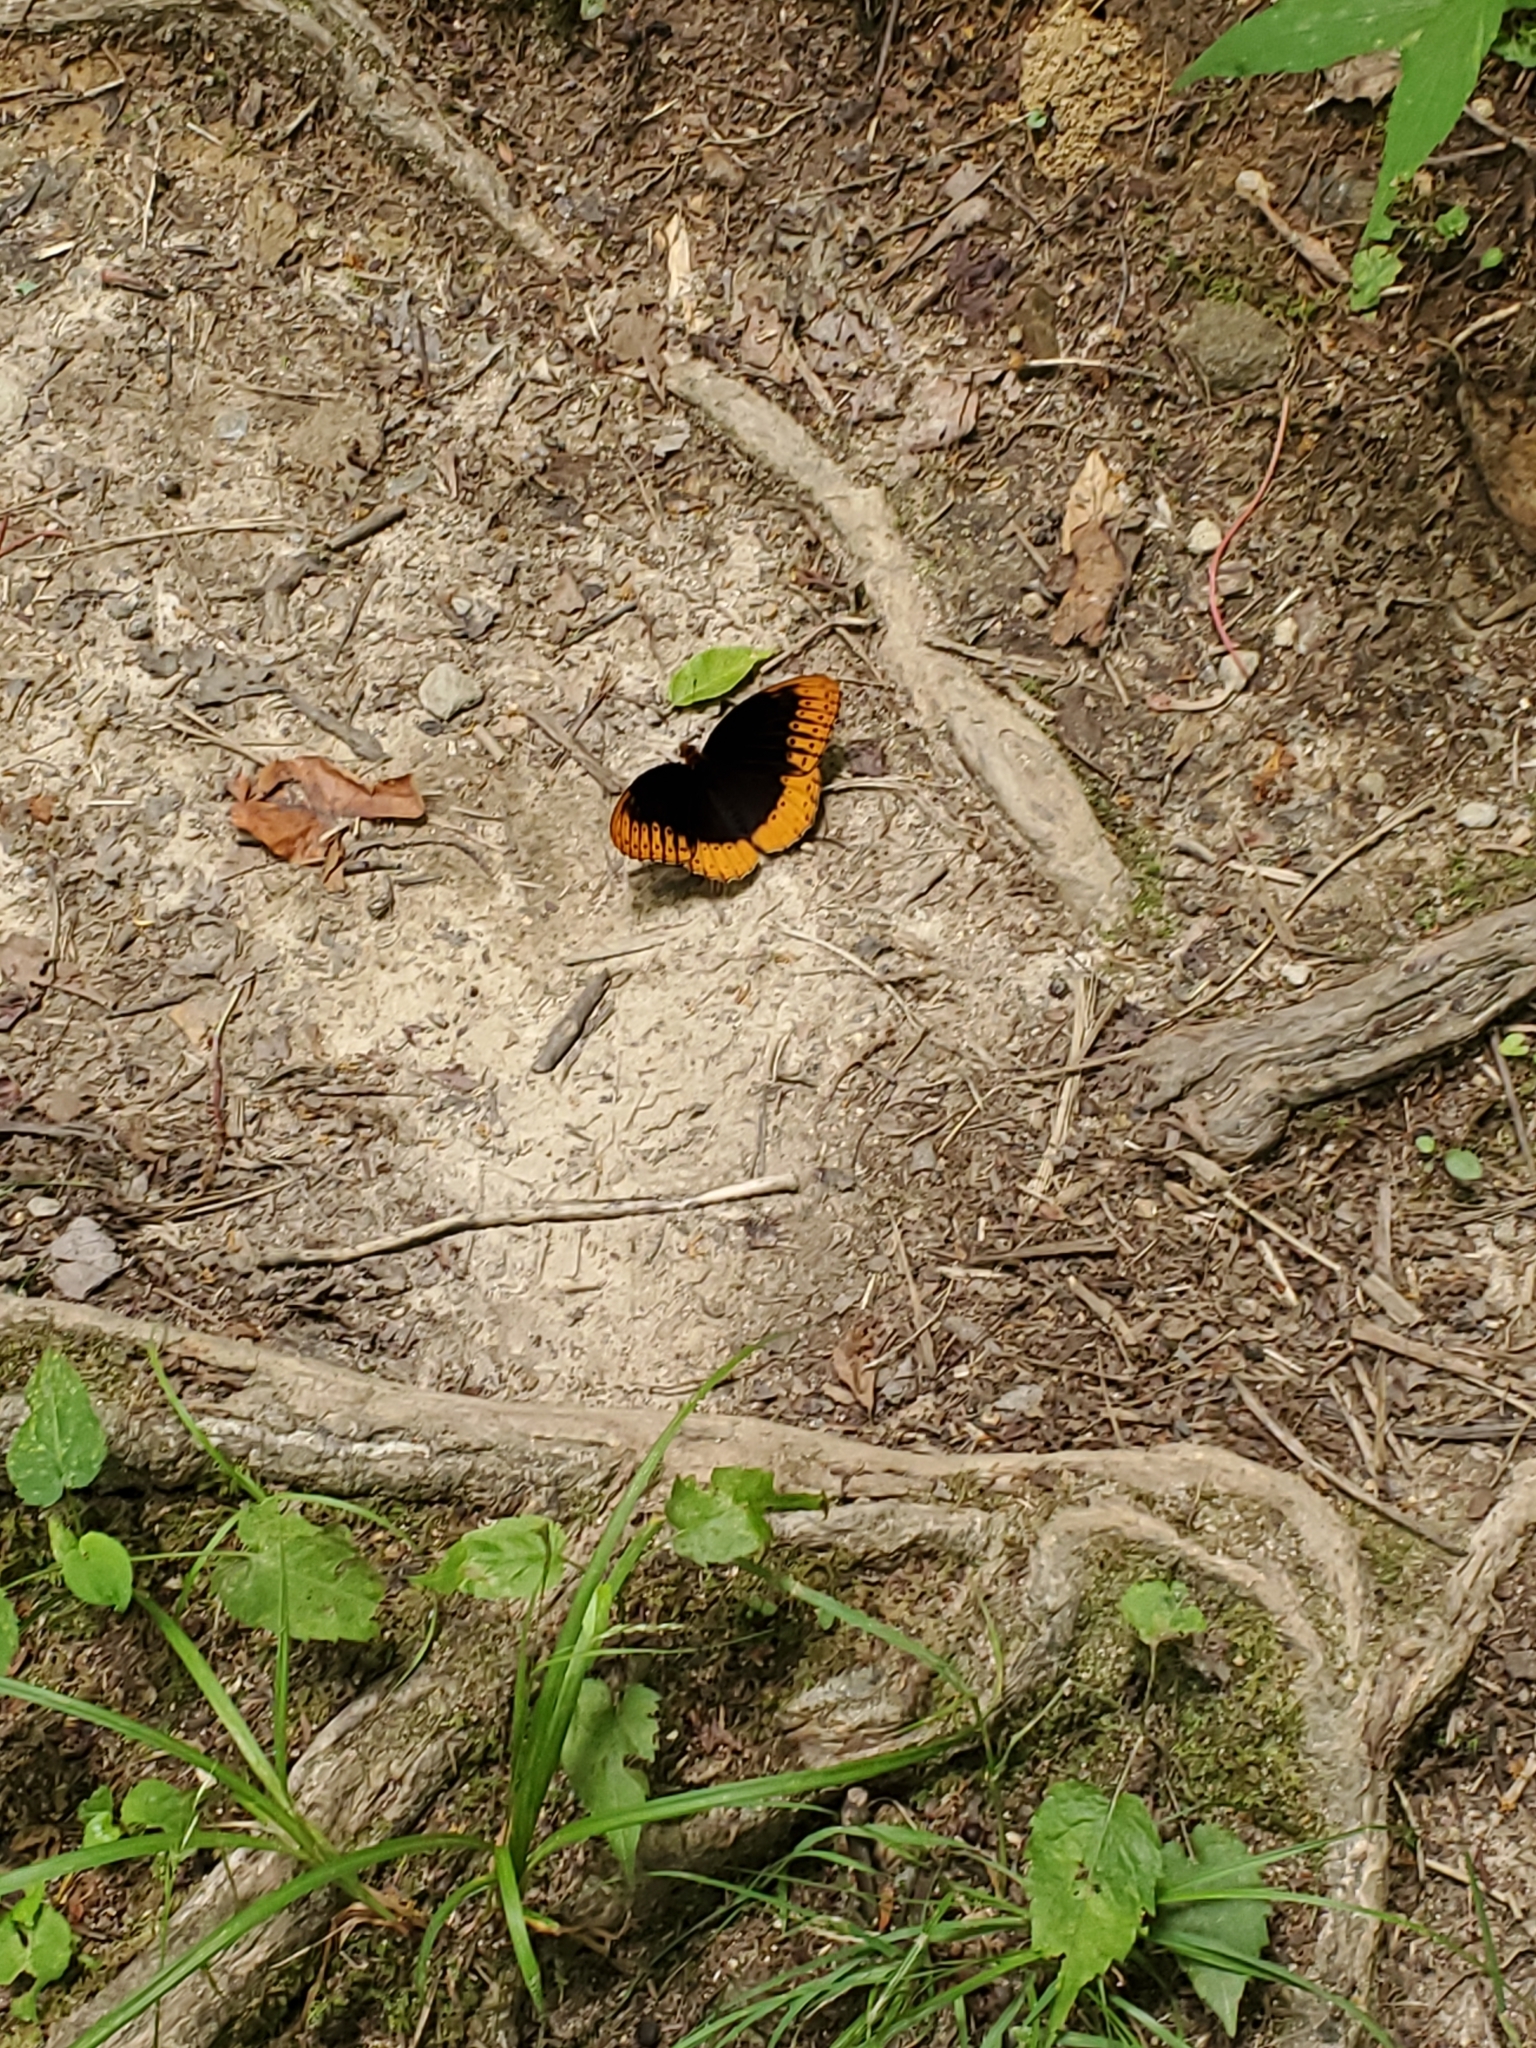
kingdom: Animalia
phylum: Arthropoda
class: Insecta
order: Lepidoptera
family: Nymphalidae
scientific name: Nymphalidae
